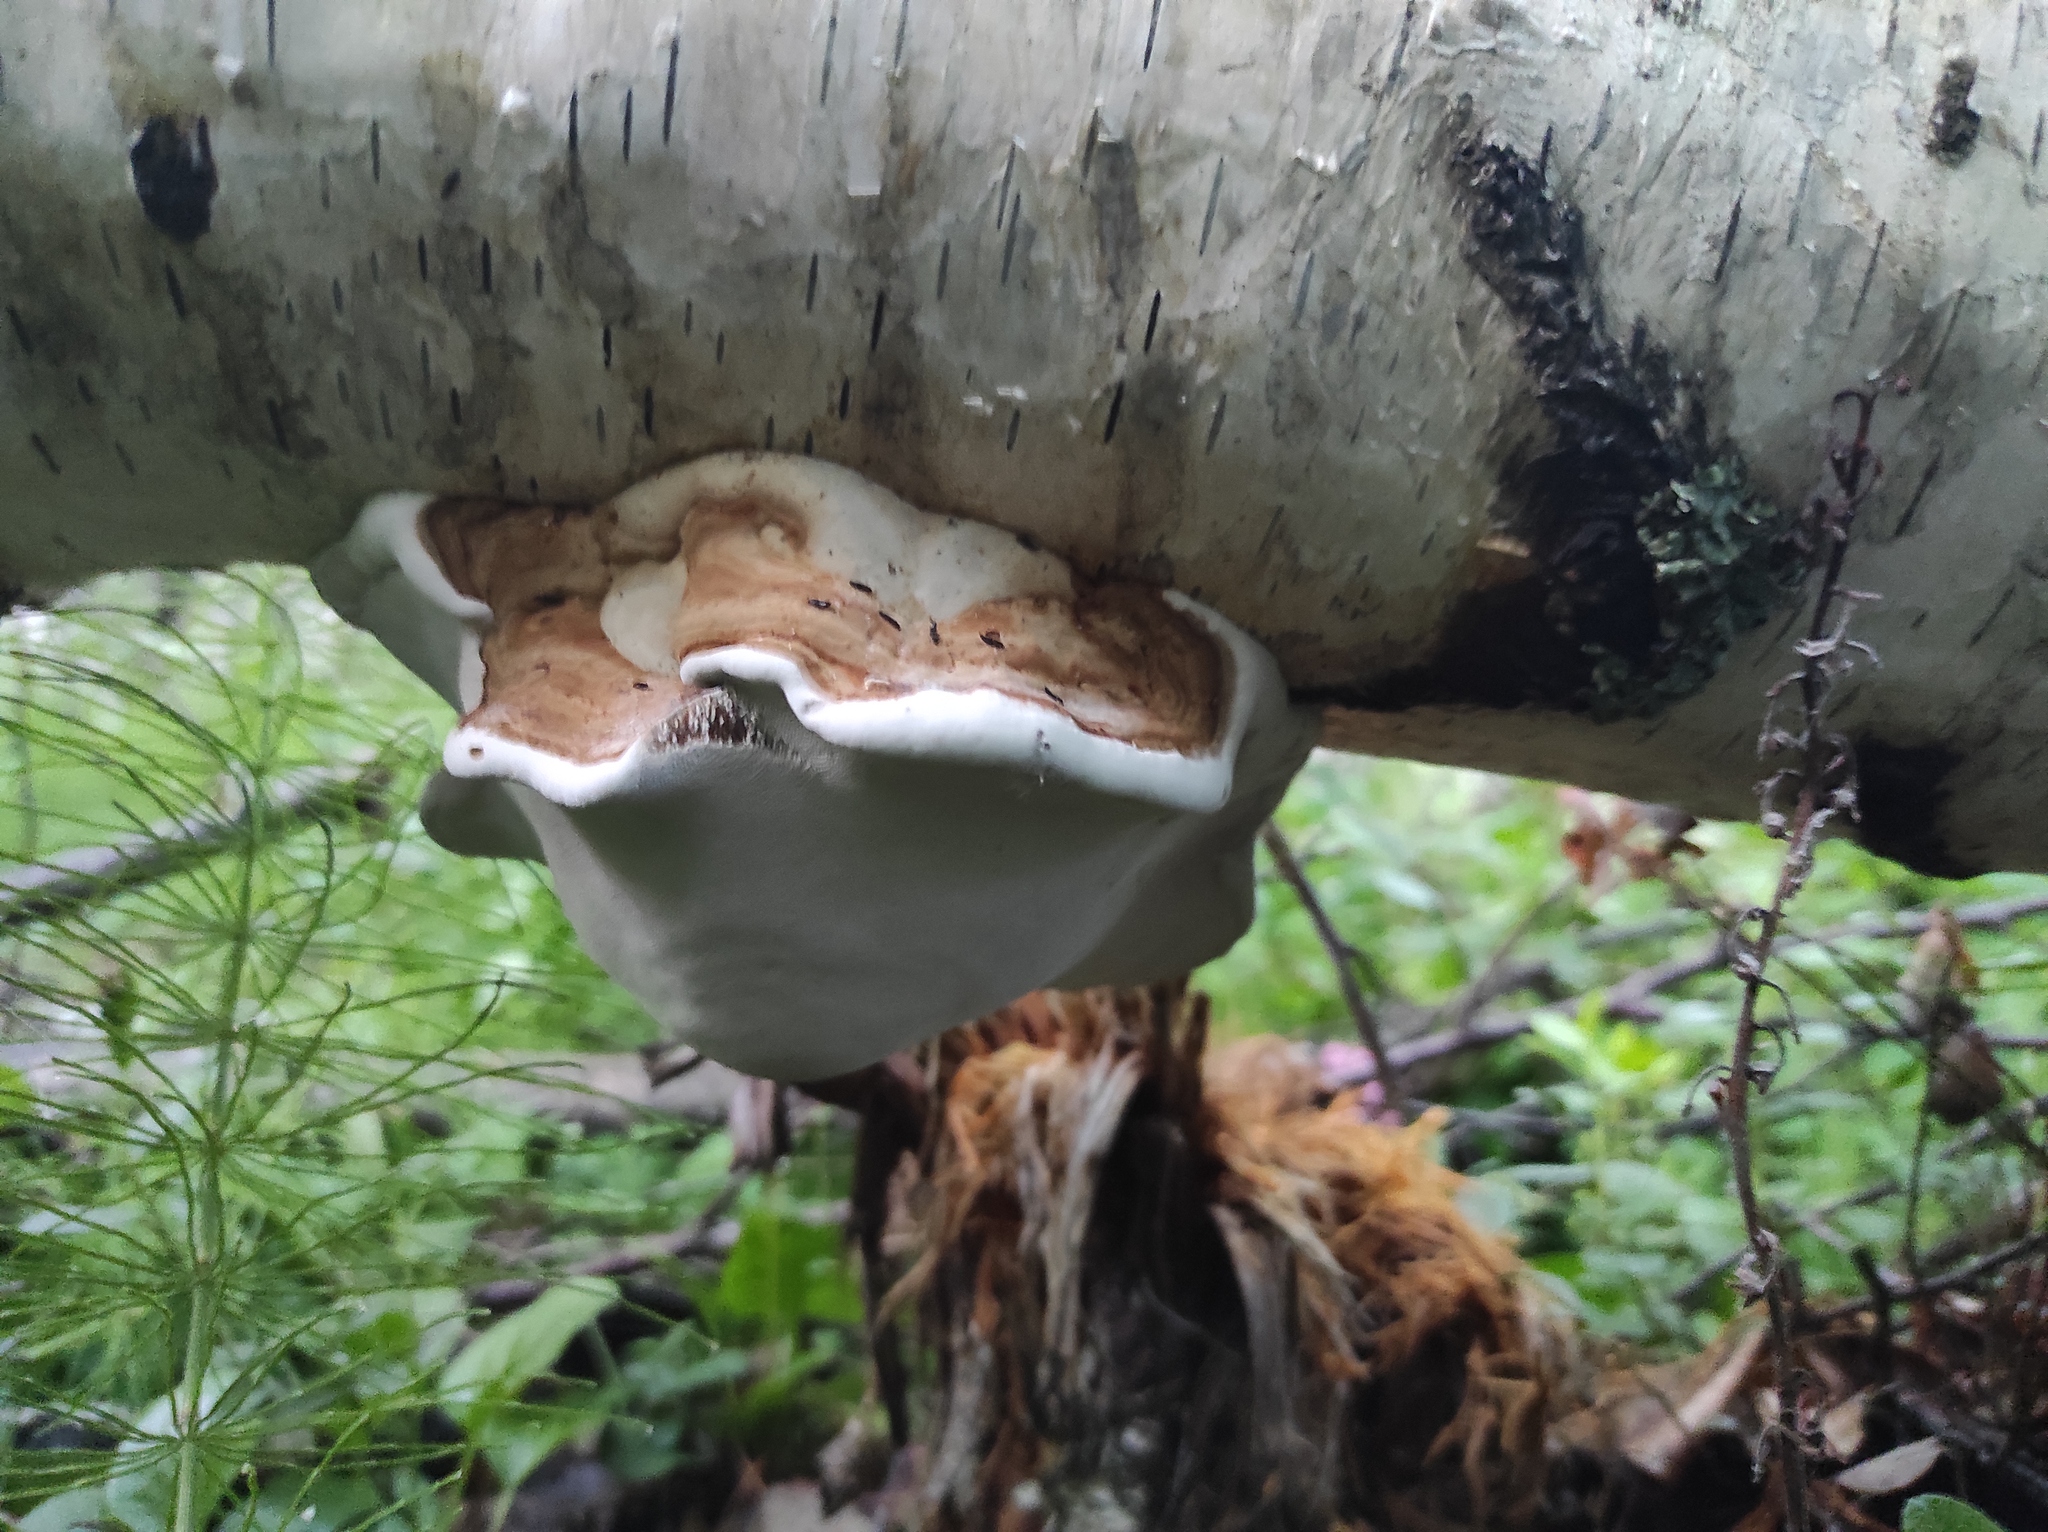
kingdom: Fungi
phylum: Basidiomycota
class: Agaricomycetes
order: Polyporales
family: Polyporaceae
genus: Fomes
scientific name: Fomes fomentarius
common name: Hoof fungus
